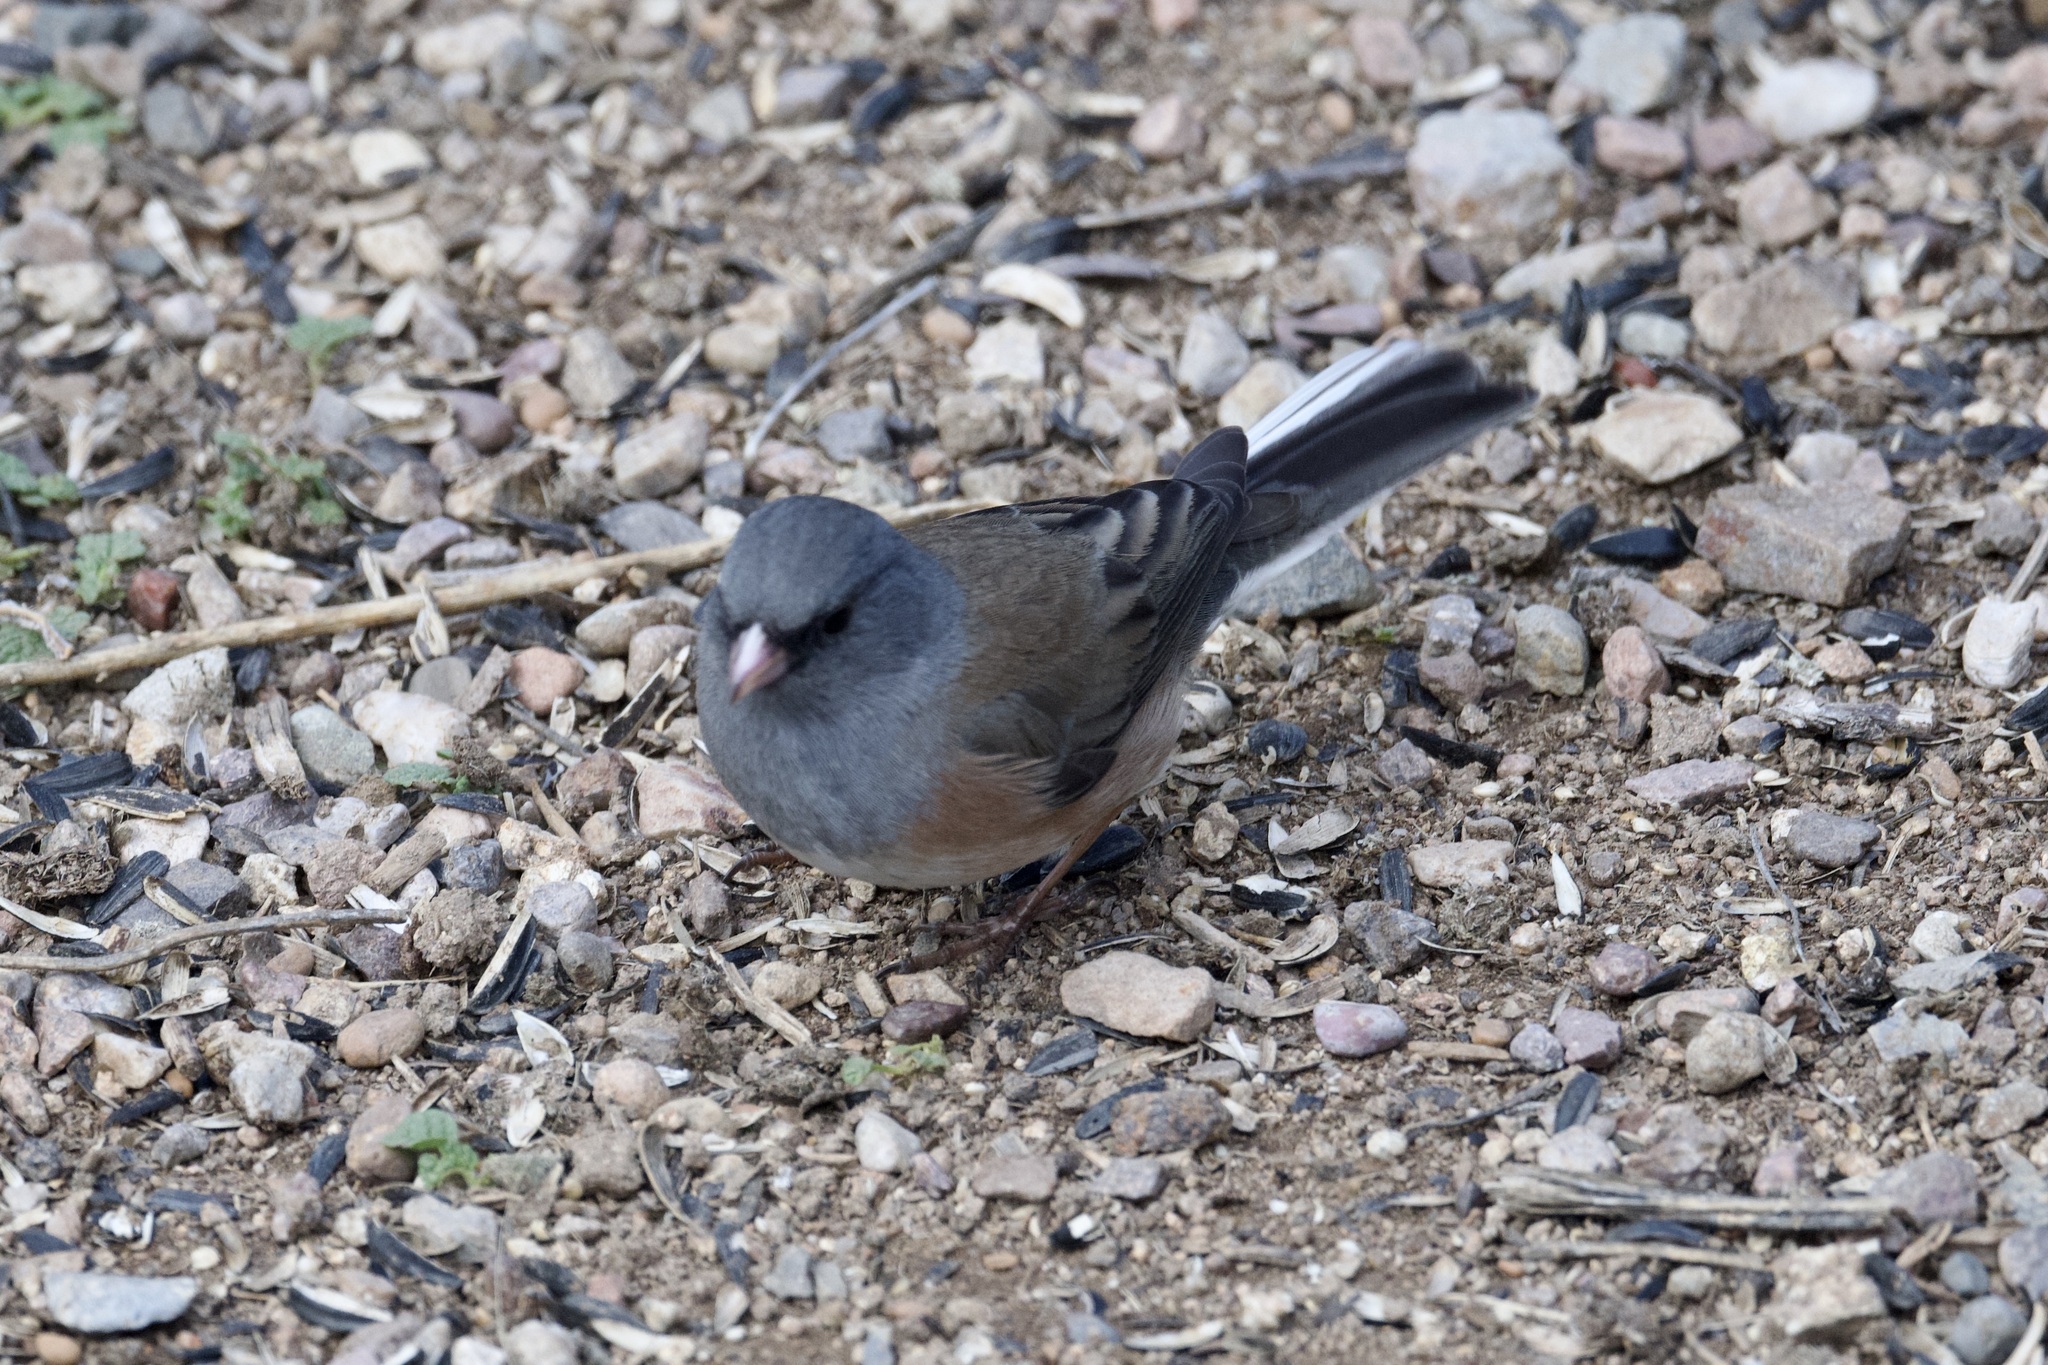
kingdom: Animalia
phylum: Chordata
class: Aves
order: Passeriformes
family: Passerellidae
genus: Junco
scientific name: Junco hyemalis
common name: Dark-eyed junco
